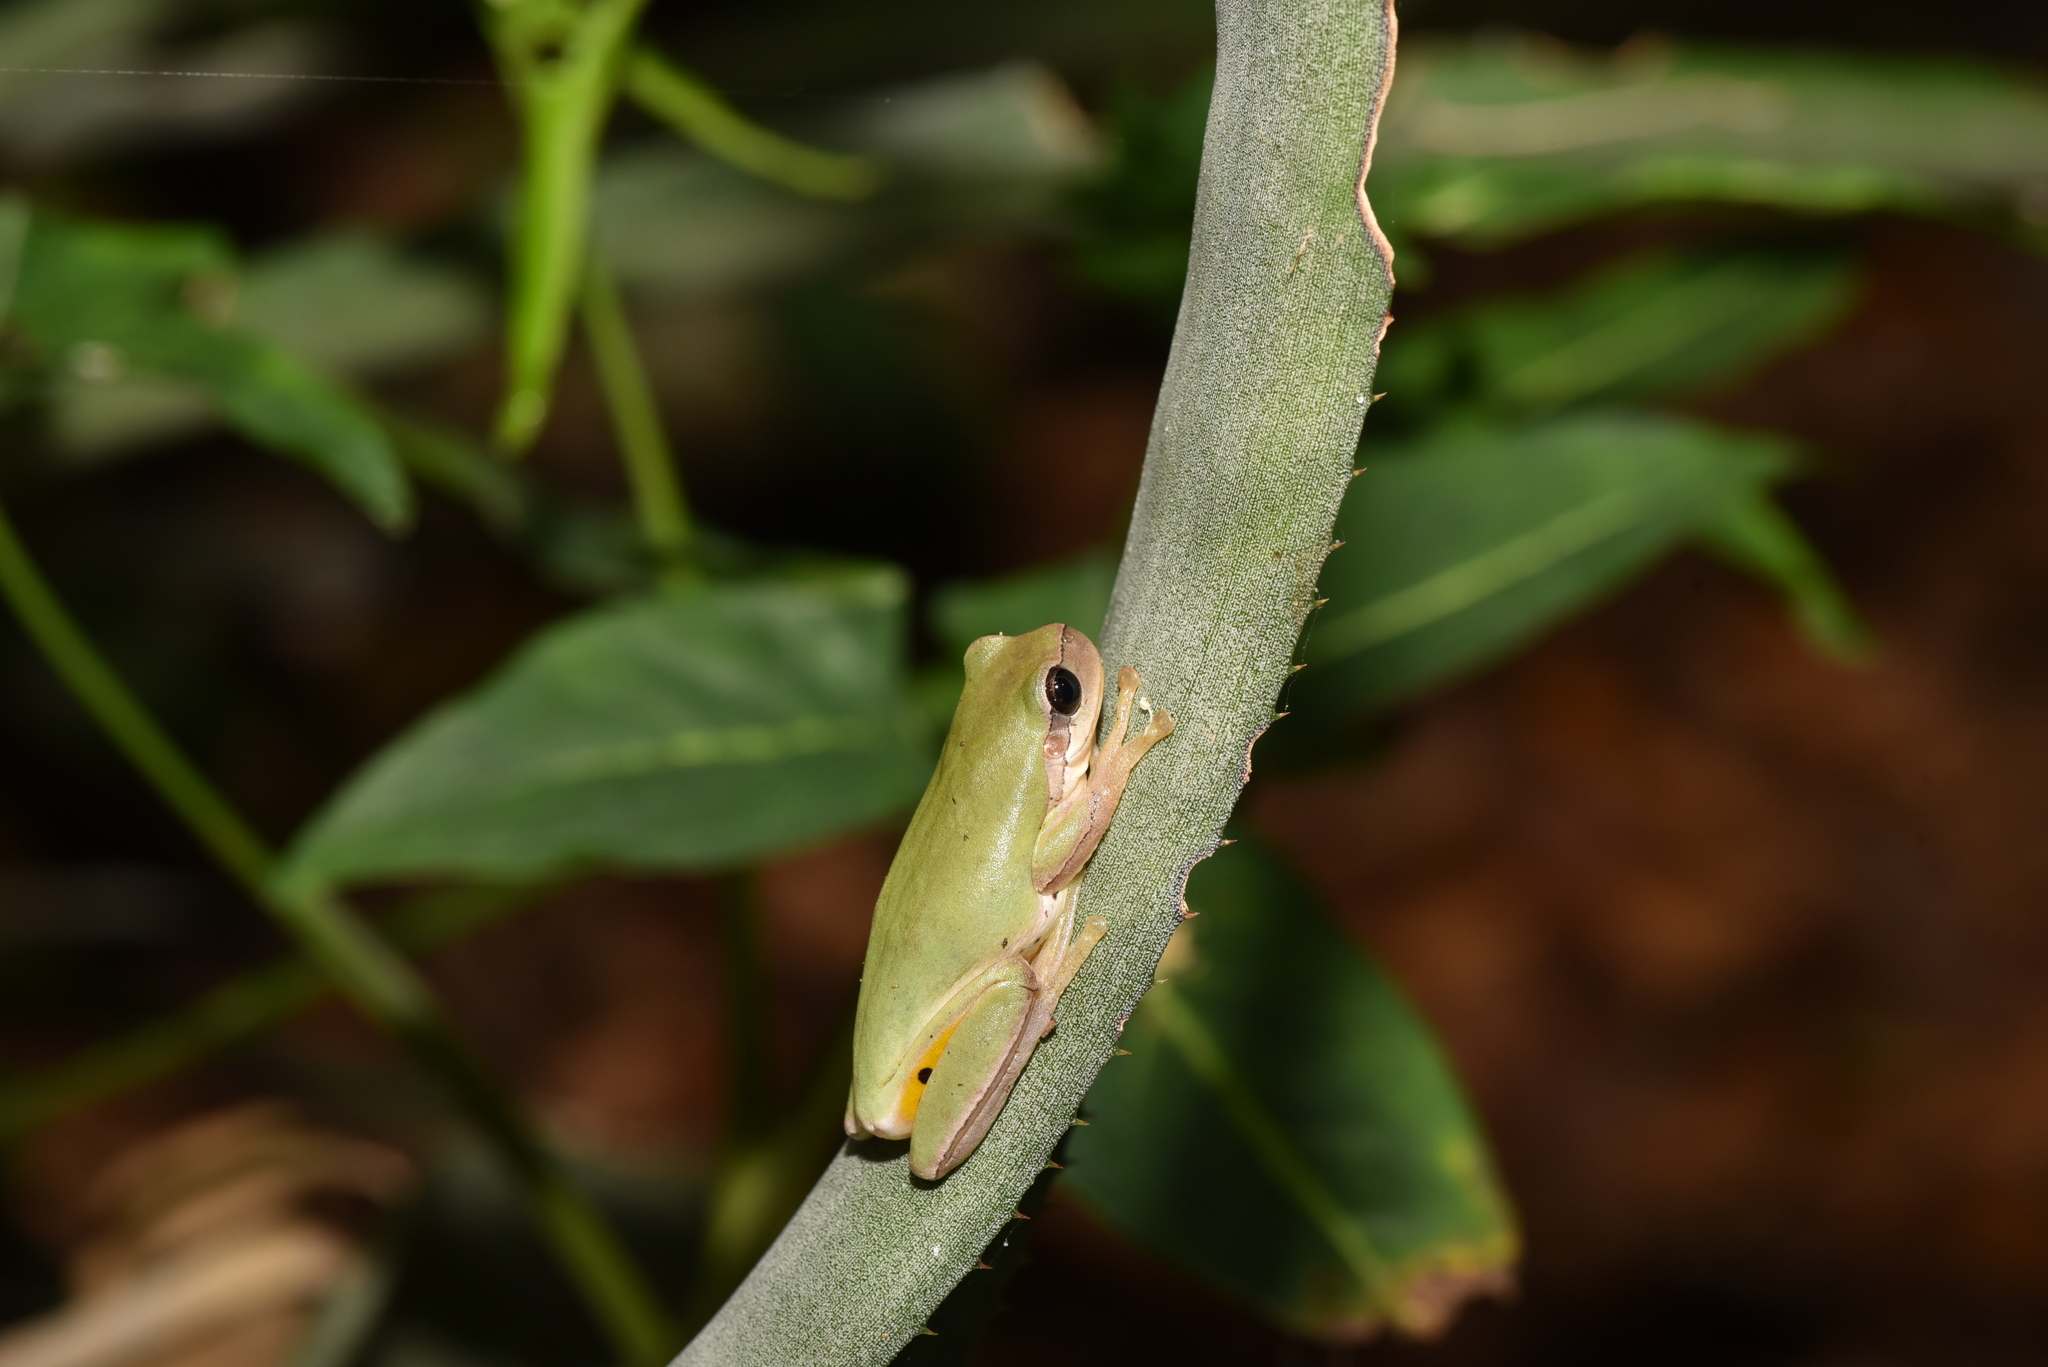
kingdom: Animalia
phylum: Chordata
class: Amphibia
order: Anura
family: Hylidae
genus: Hyla
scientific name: Hyla chinensis
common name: Common chinese treefrog
